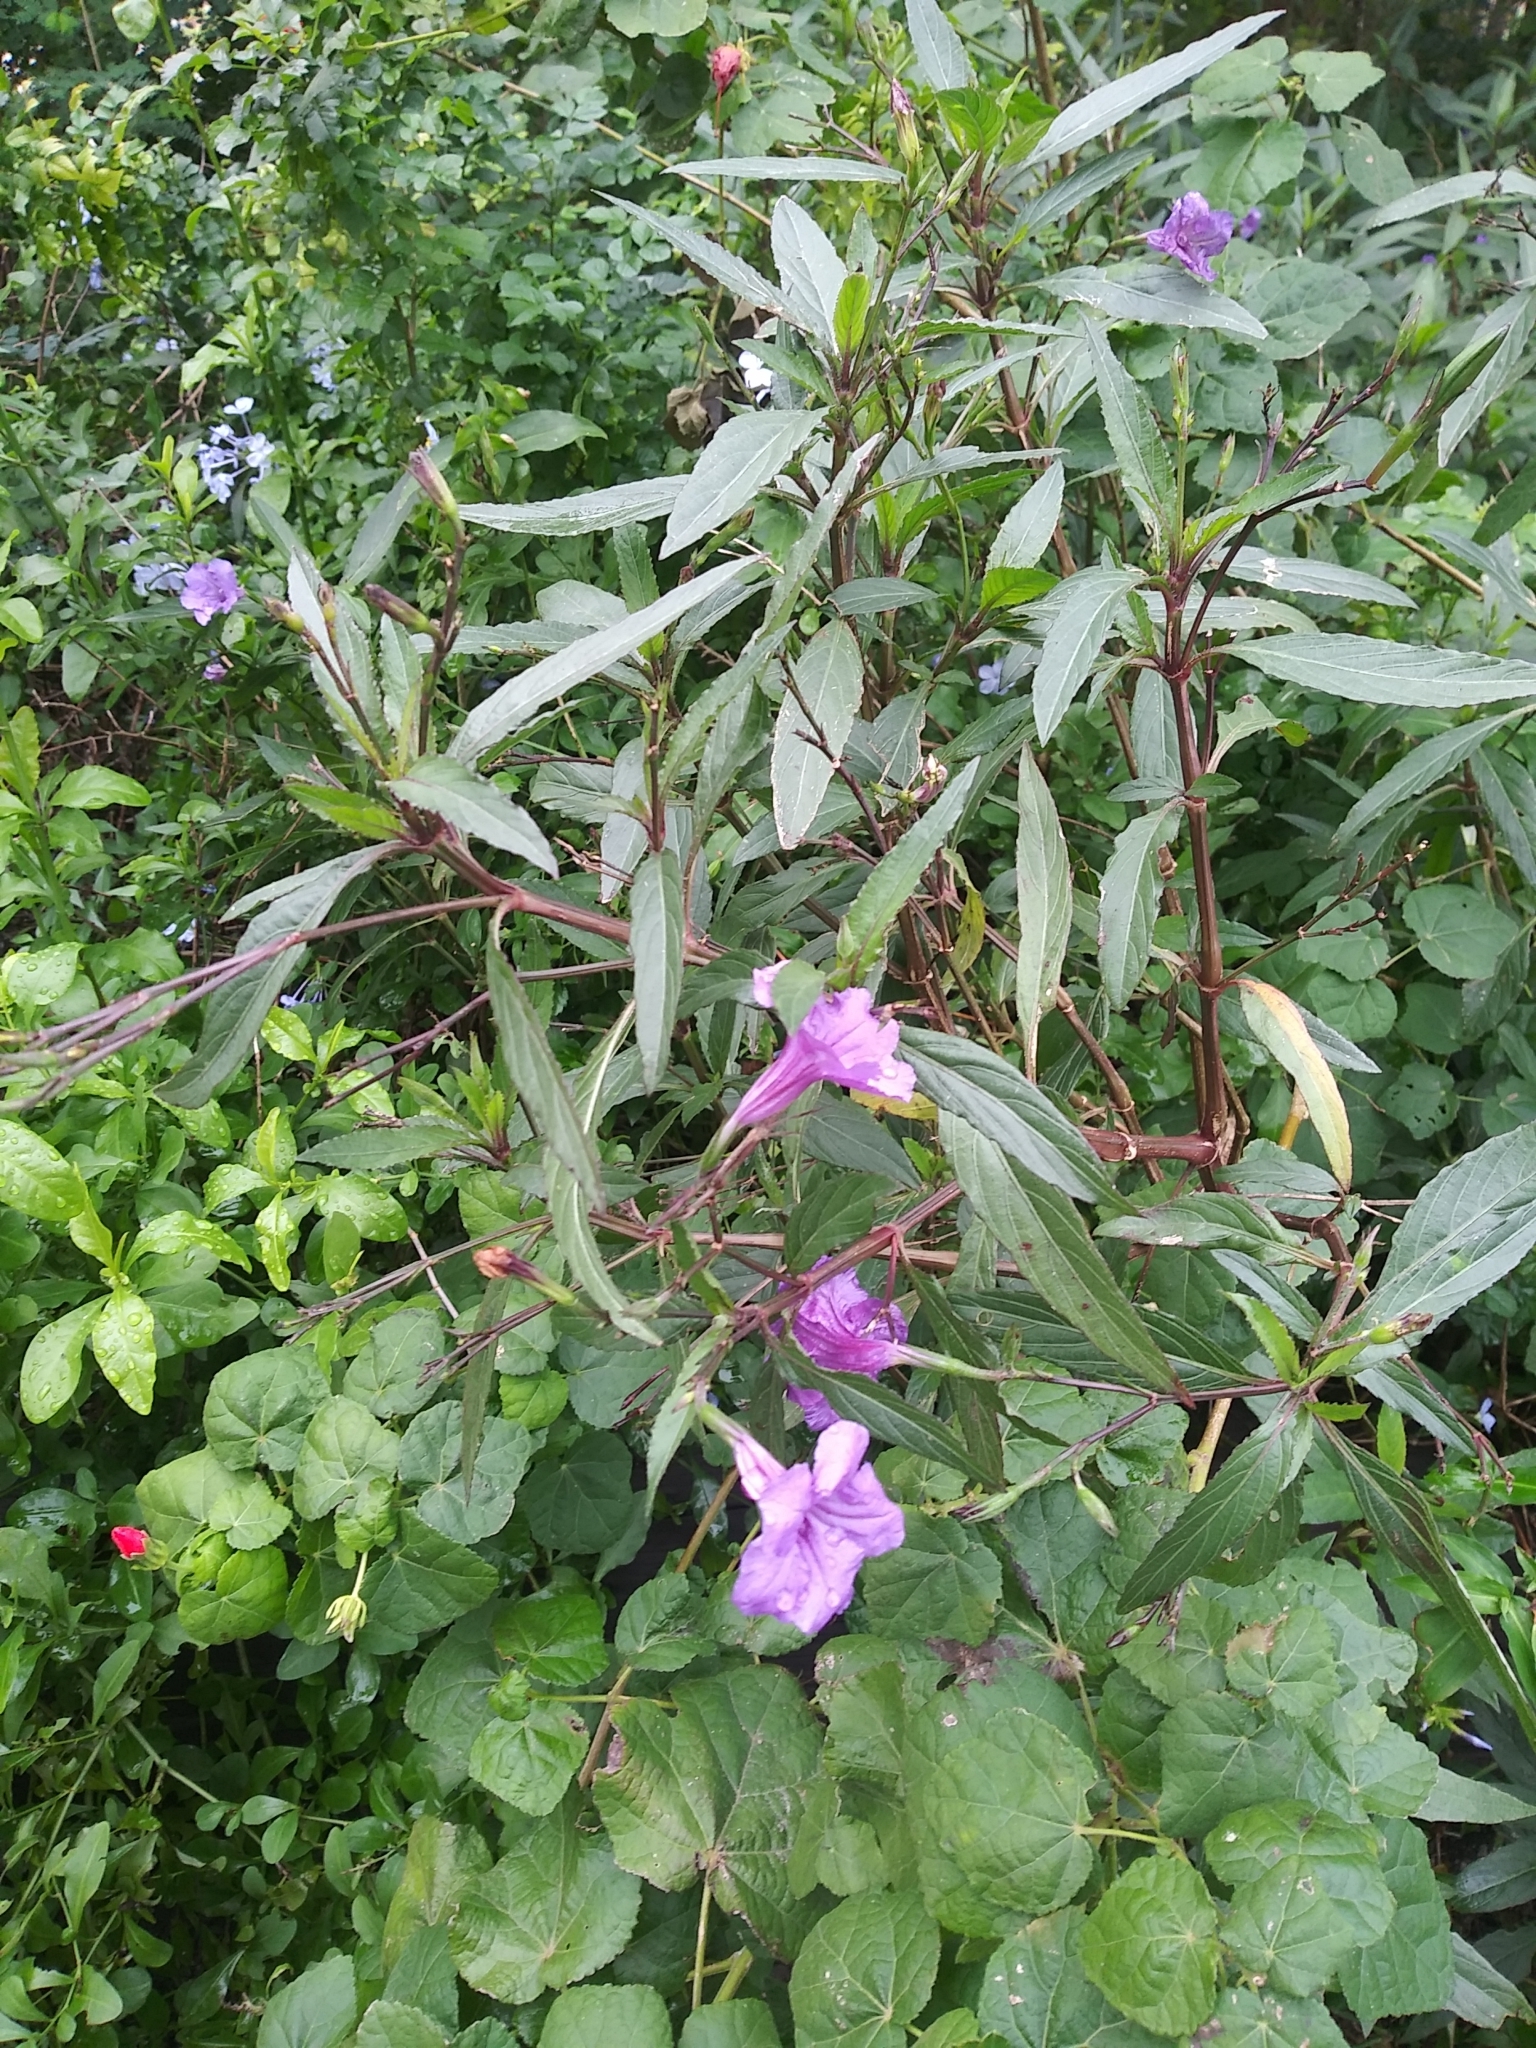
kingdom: Plantae
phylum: Tracheophyta
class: Magnoliopsida
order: Lamiales
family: Acanthaceae
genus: Ruellia
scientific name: Ruellia simplex
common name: Softseed wild petunia
